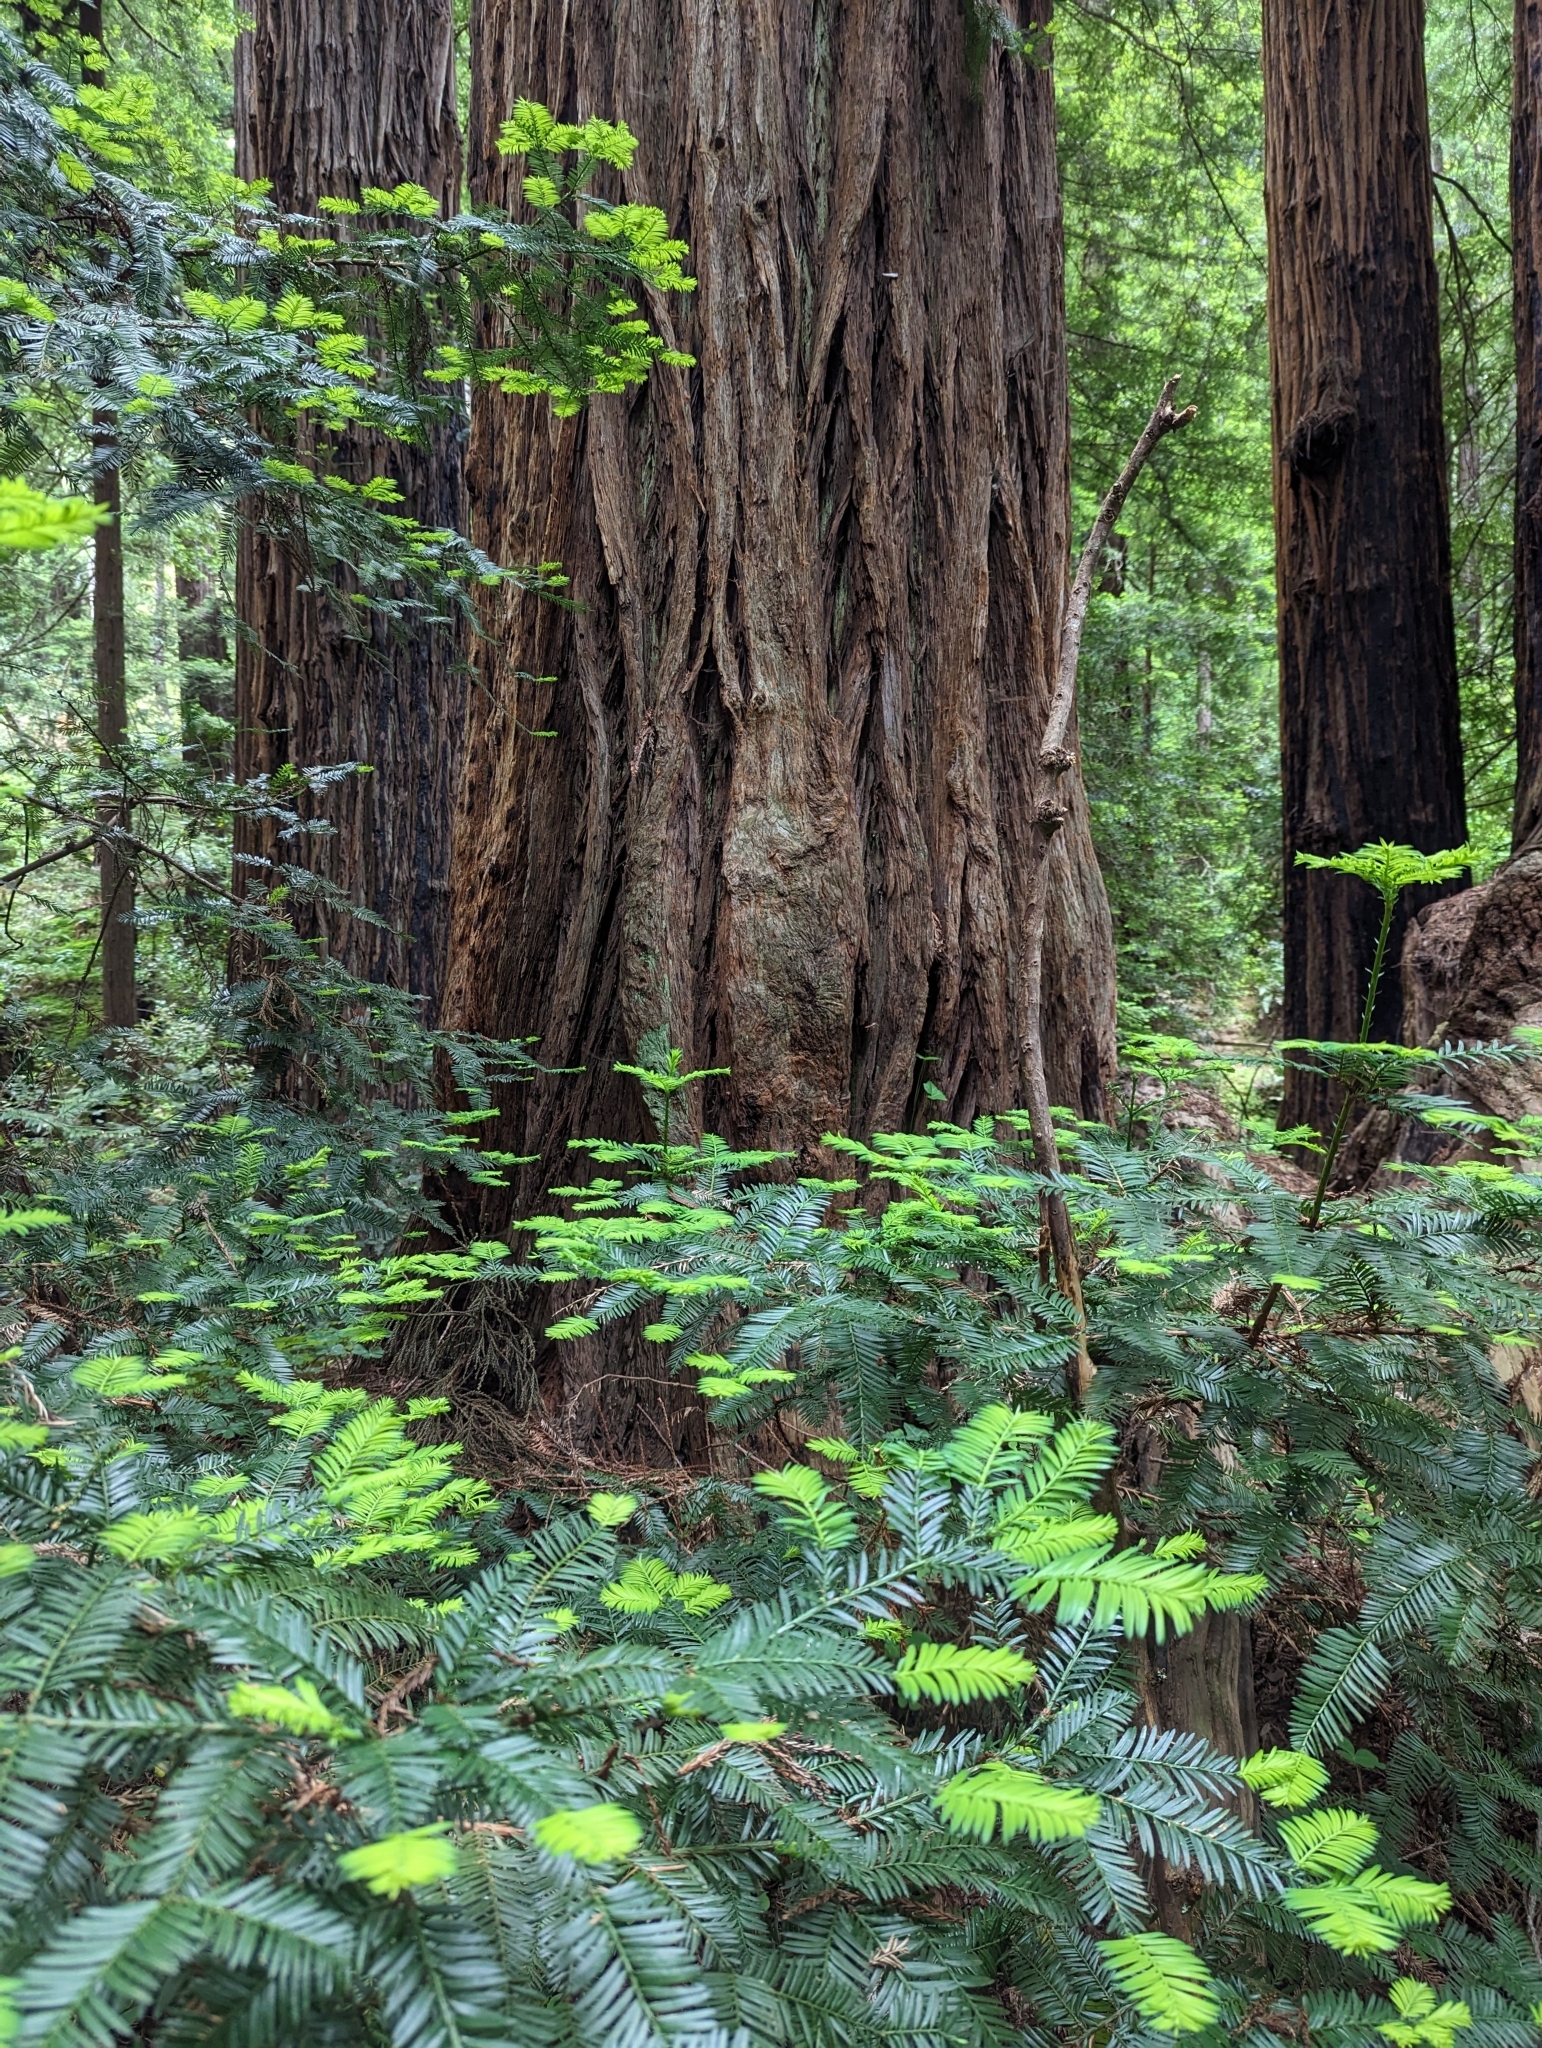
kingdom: Plantae
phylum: Tracheophyta
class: Pinopsida
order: Pinales
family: Cupressaceae
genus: Sequoia
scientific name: Sequoia sempervirens
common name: Coast redwood
